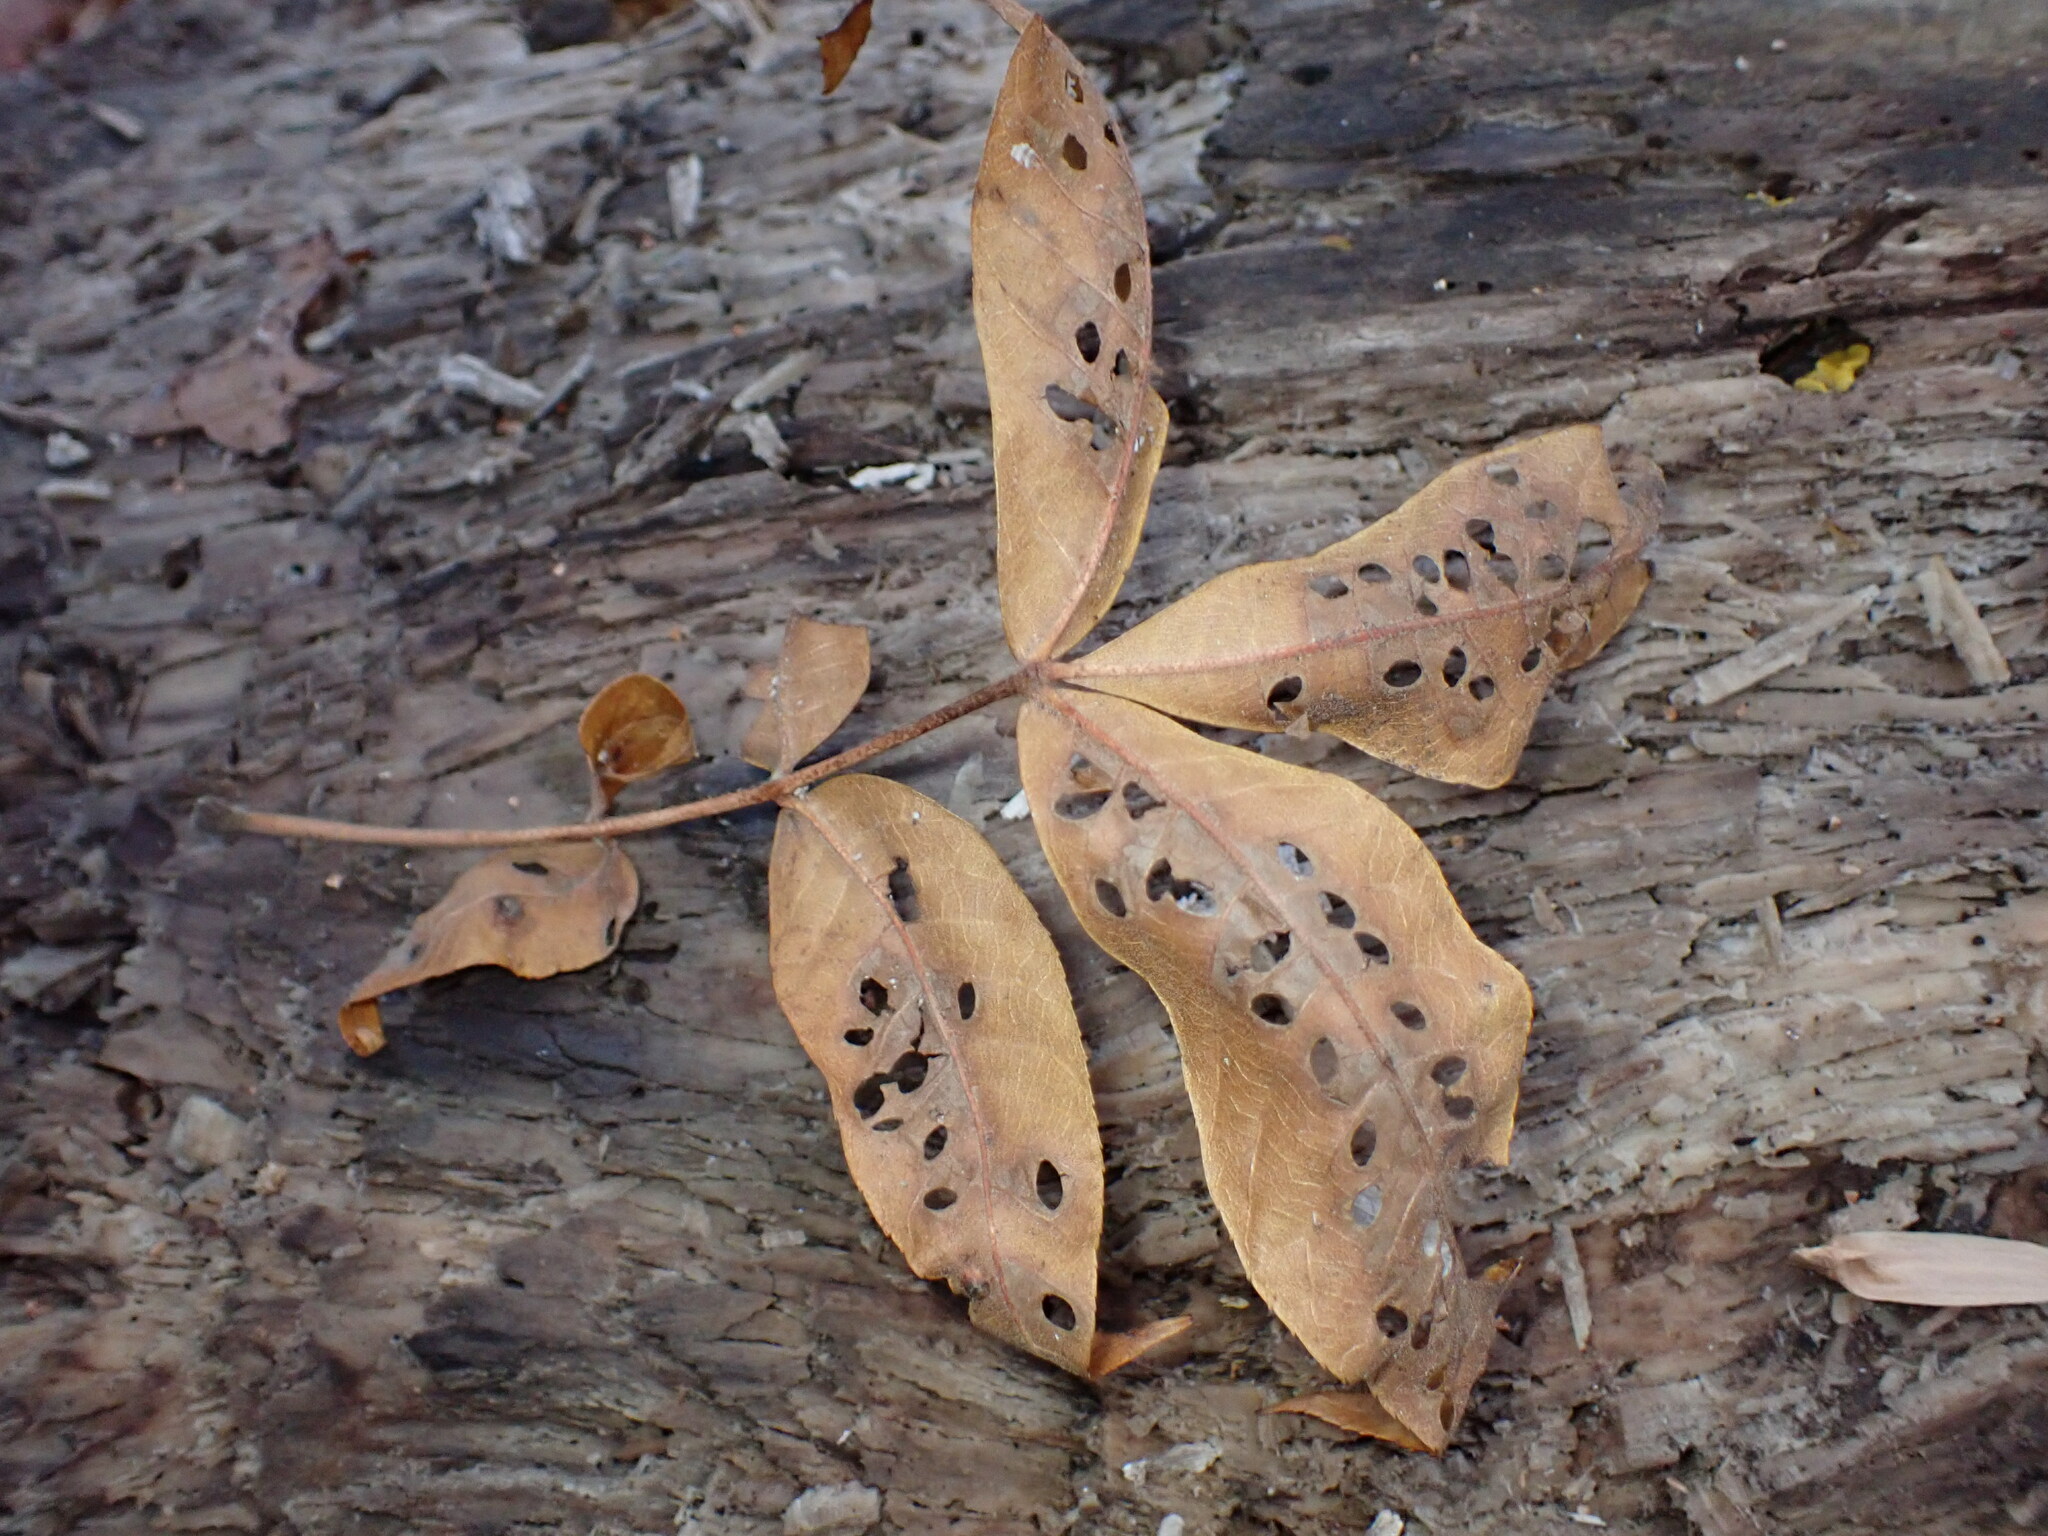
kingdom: Animalia
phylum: Arthropoda
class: Insecta
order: Lepidoptera
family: Heliozelidae
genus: Coptodisca
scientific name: Coptodisca lucifluella
